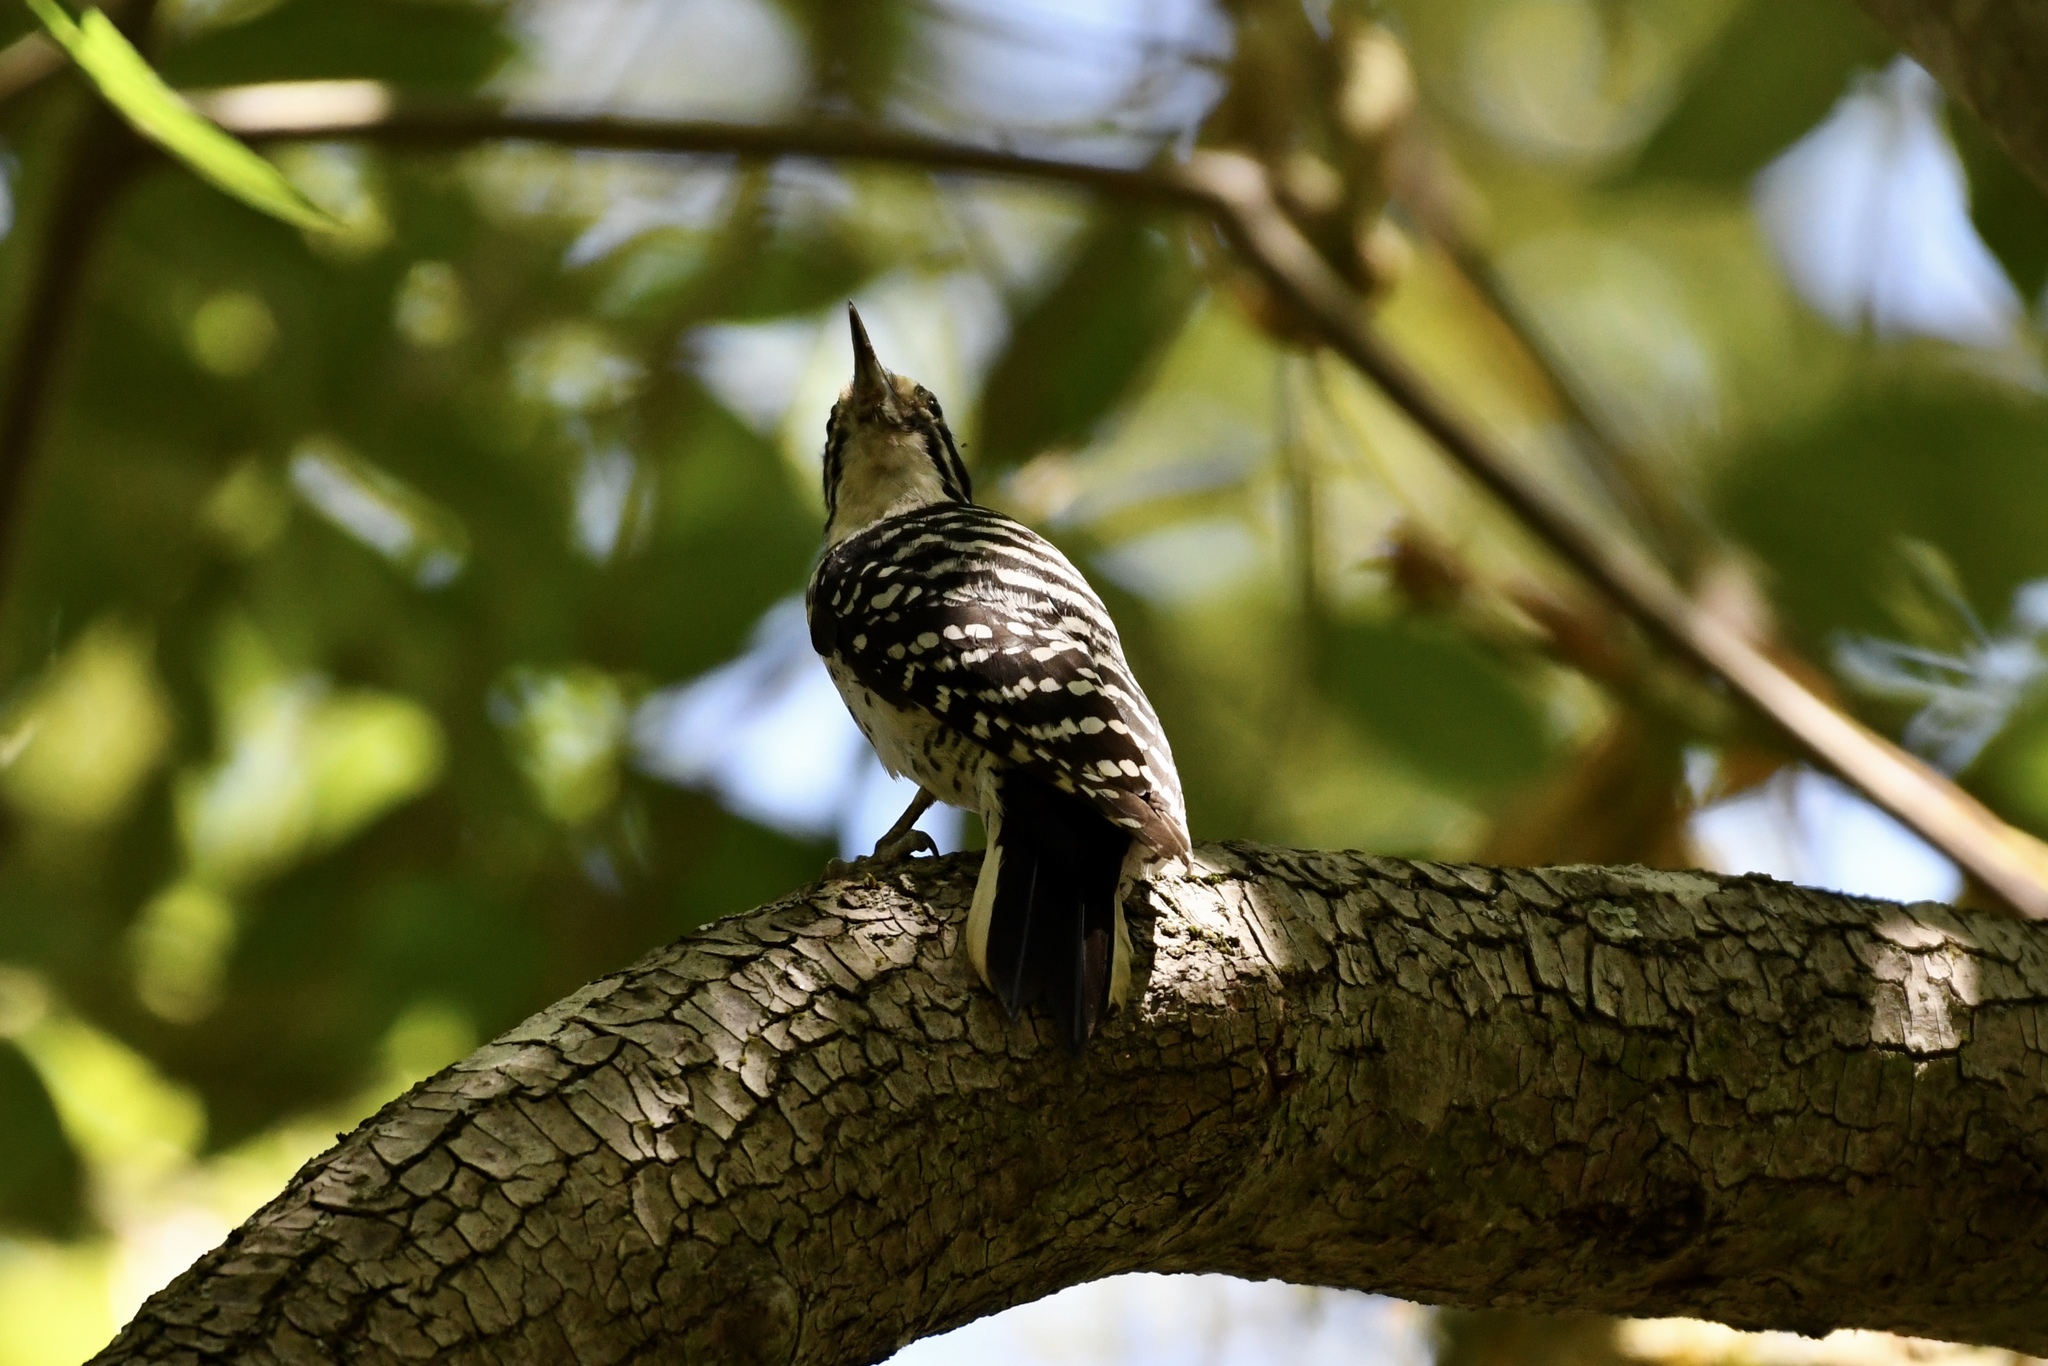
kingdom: Animalia
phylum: Chordata
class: Aves
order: Piciformes
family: Picidae
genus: Dryobates
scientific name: Dryobates nuttallii
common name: Nuttall's woodpecker
